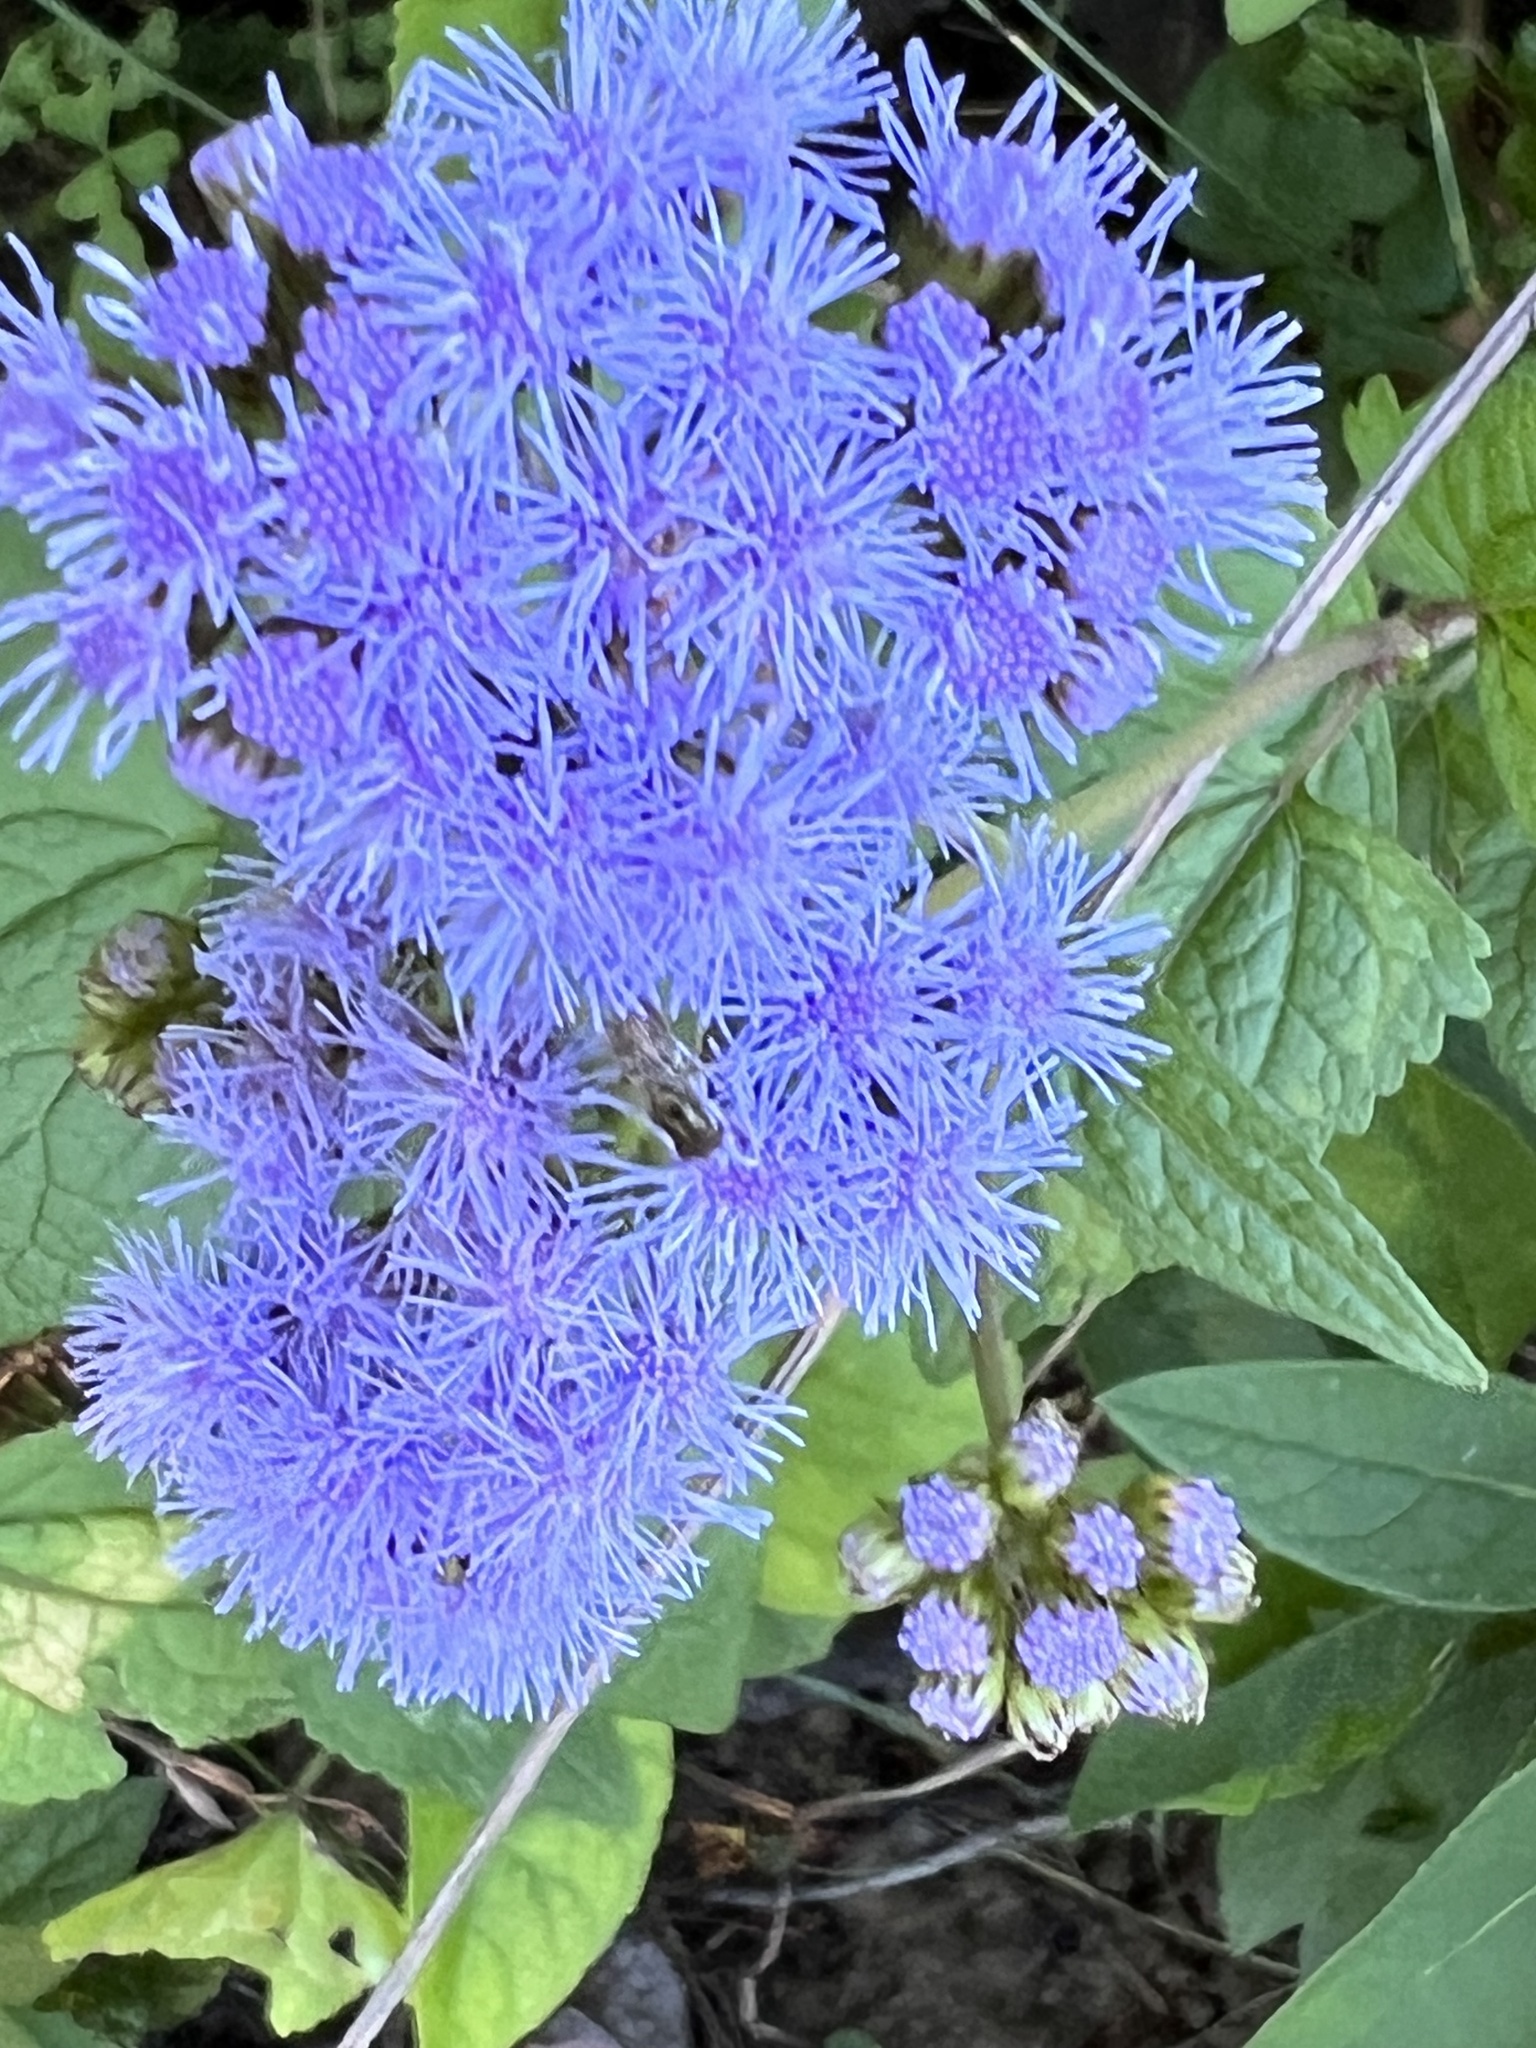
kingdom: Plantae
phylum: Tracheophyta
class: Magnoliopsida
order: Asterales
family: Asteraceae
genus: Conoclinium
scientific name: Conoclinium coelestinum
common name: Blue mistflower
